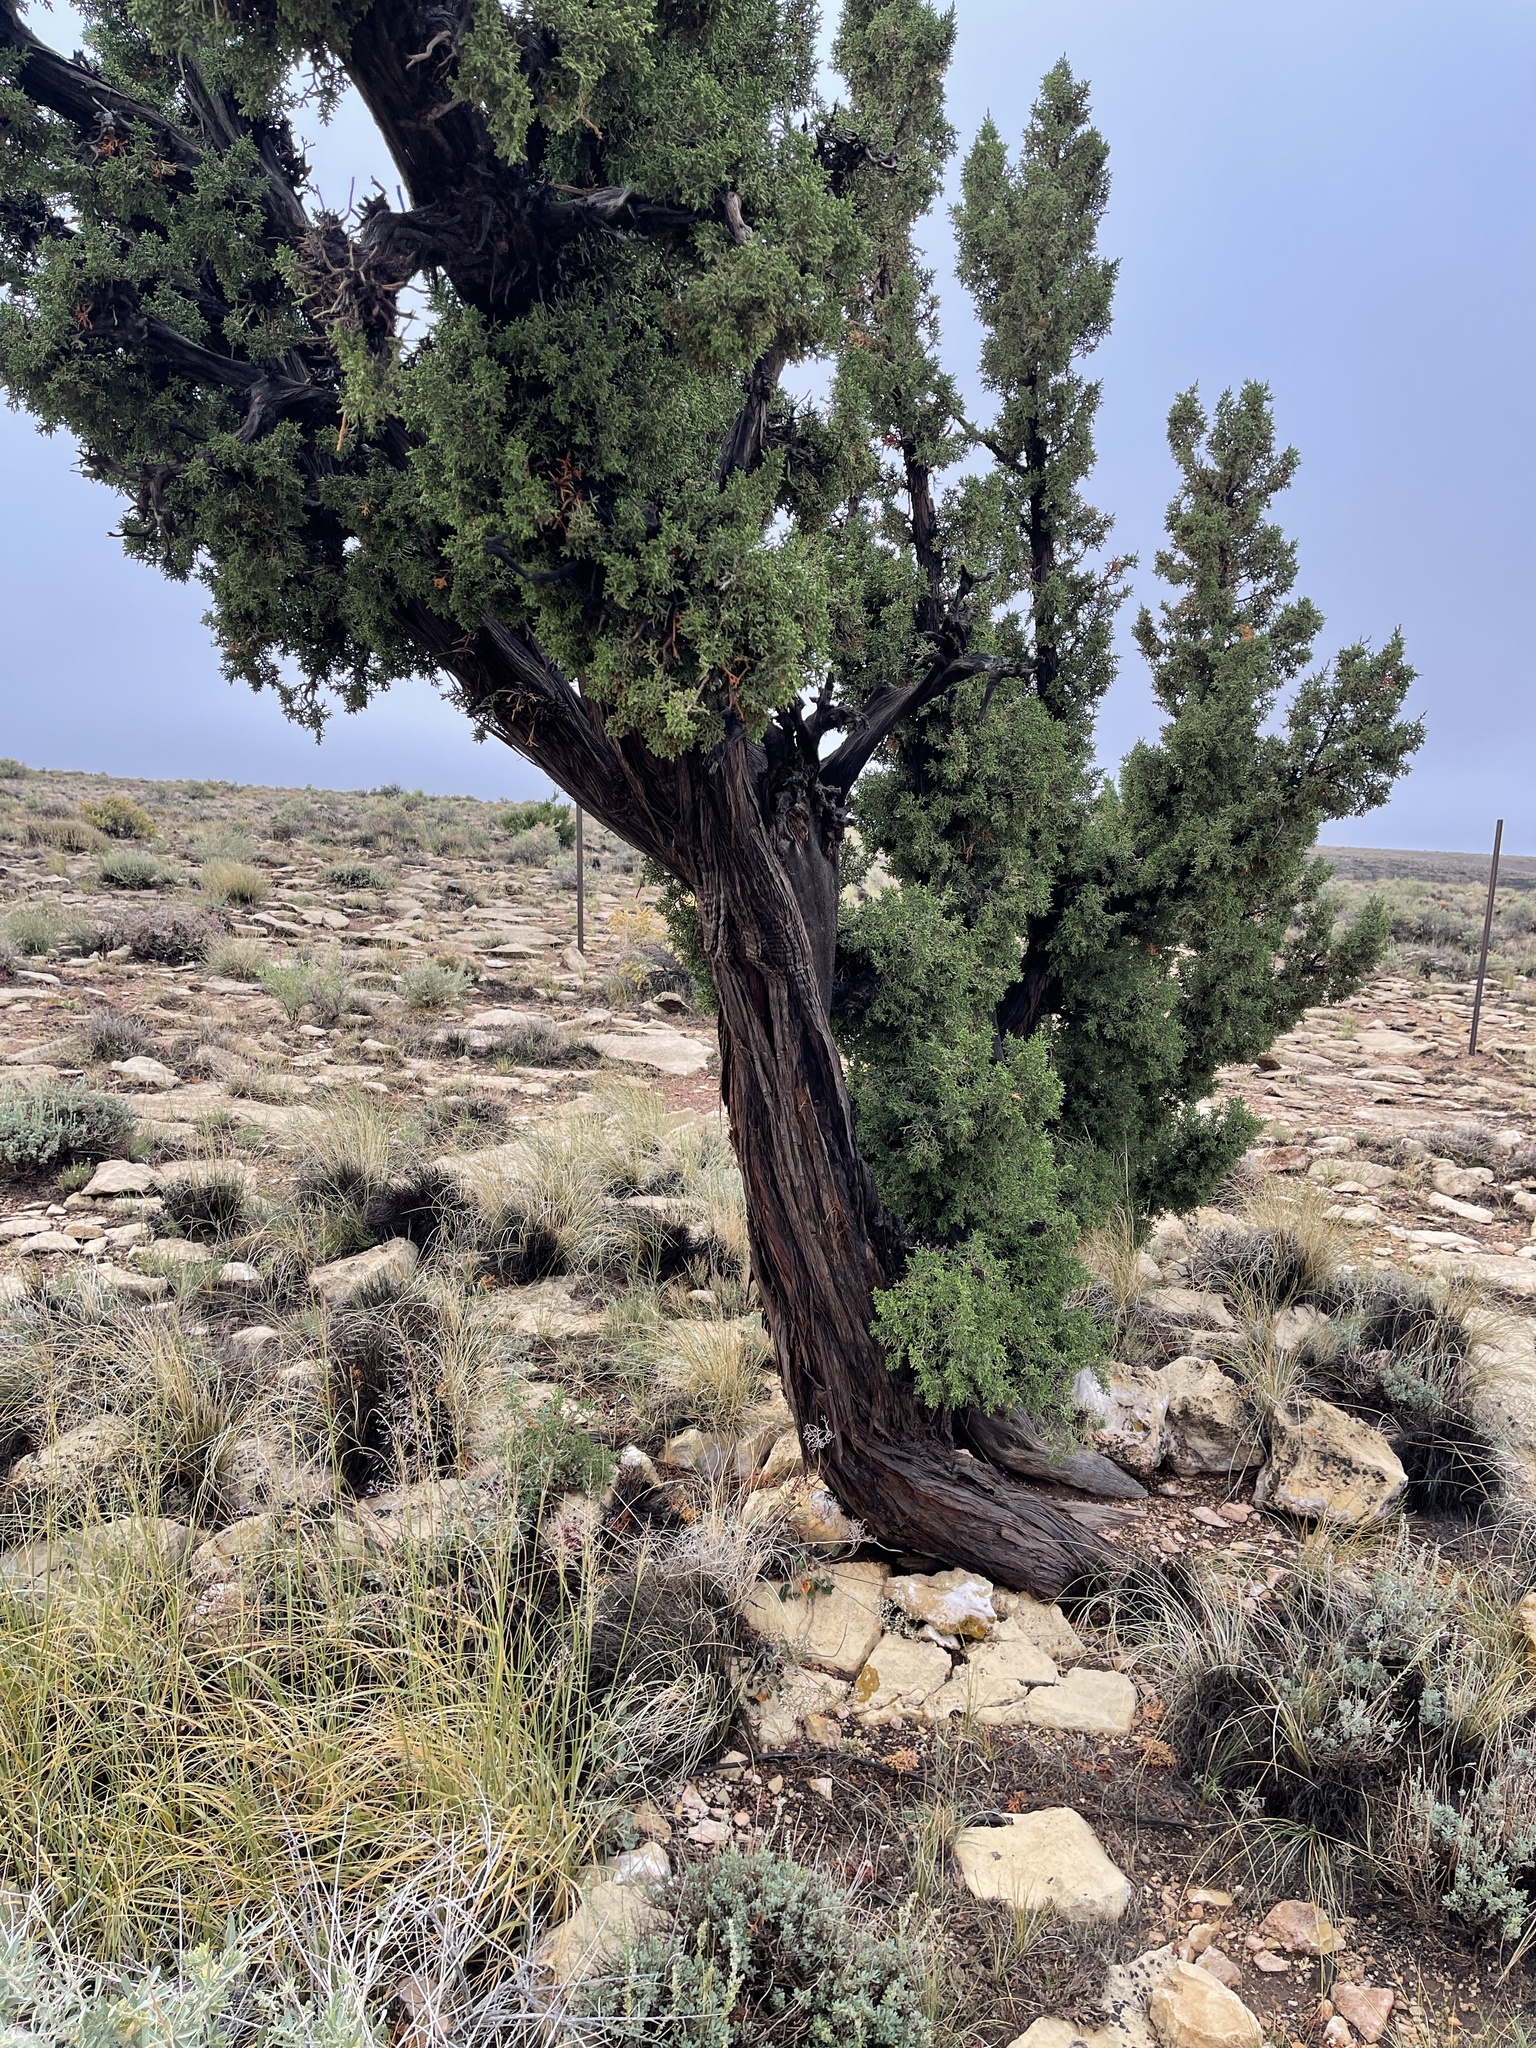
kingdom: Plantae
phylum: Tracheophyta
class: Pinopsida
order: Pinales
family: Cupressaceae
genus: Juniperus
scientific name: Juniperus monosperma
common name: One-seed juniper
